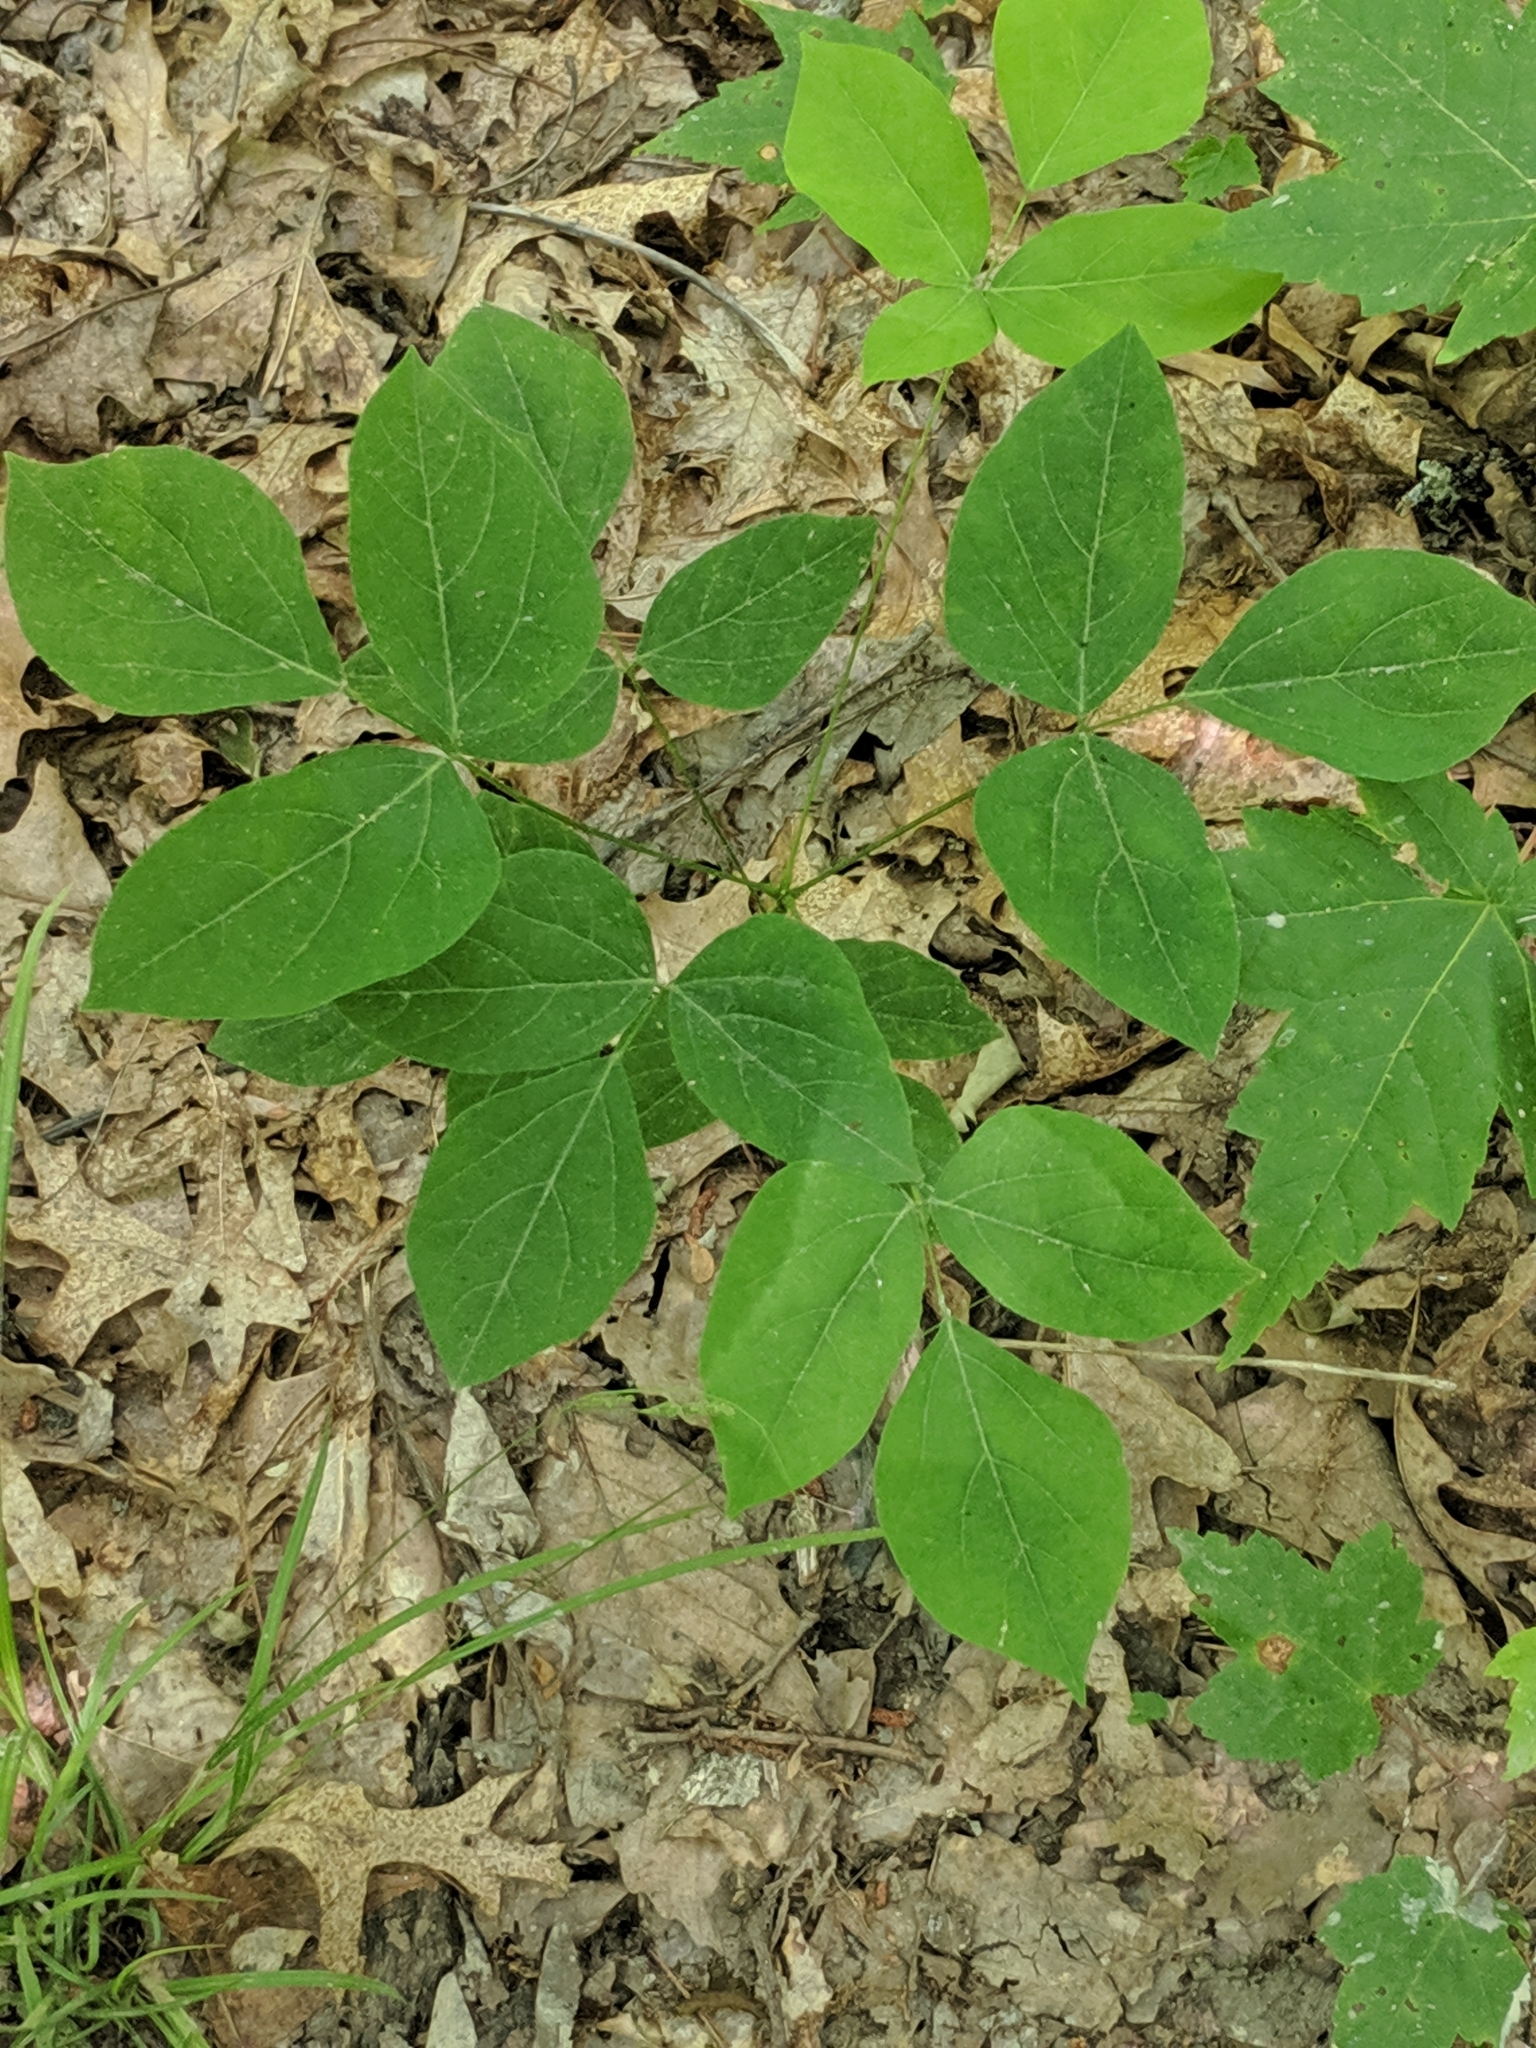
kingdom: Plantae
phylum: Tracheophyta
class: Magnoliopsida
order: Fabales
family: Fabaceae
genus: Hylodesmum
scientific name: Hylodesmum nudiflorum
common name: Bare-stemmed tick-trefoil
